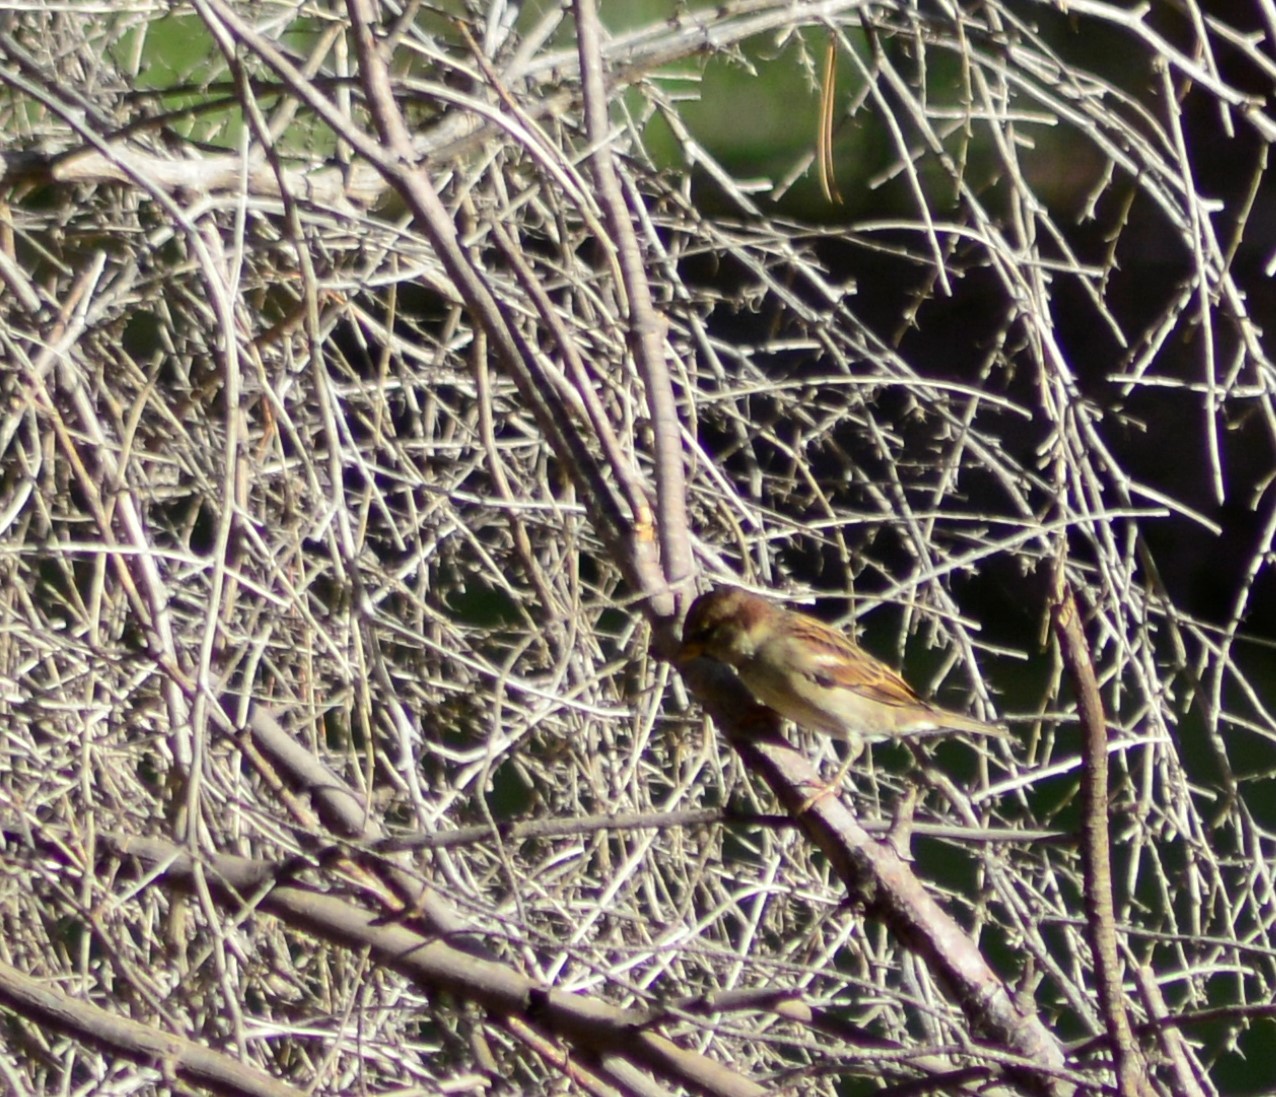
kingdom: Animalia
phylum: Chordata
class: Aves
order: Passeriformes
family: Passeridae
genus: Passer
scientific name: Passer domesticus
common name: House sparrow
